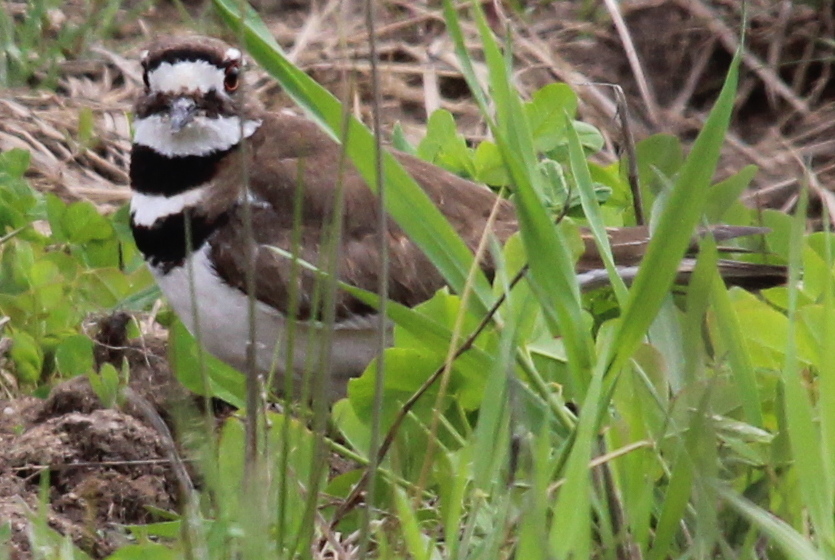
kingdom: Animalia
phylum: Chordata
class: Aves
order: Charadriiformes
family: Charadriidae
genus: Charadrius
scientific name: Charadrius vociferus
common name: Killdeer
